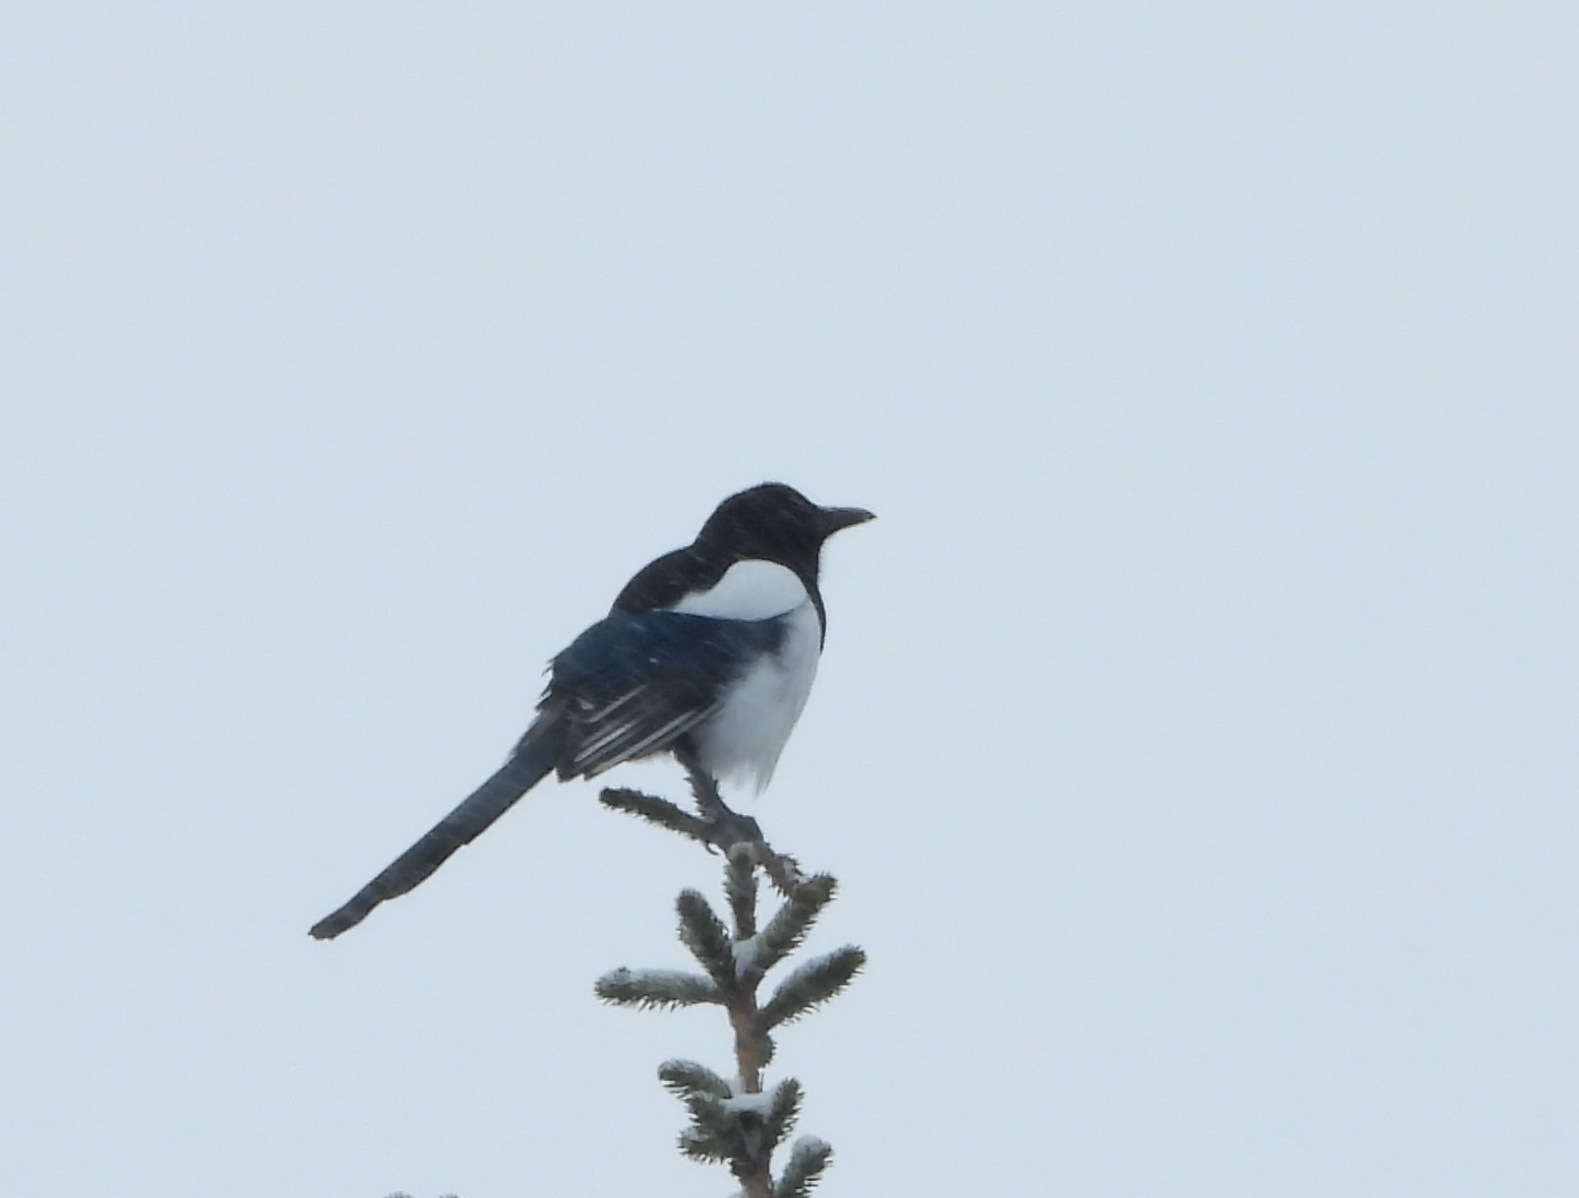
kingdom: Animalia
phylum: Chordata
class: Aves
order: Passeriformes
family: Corvidae
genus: Pica
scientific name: Pica pica
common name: Eurasian magpie
